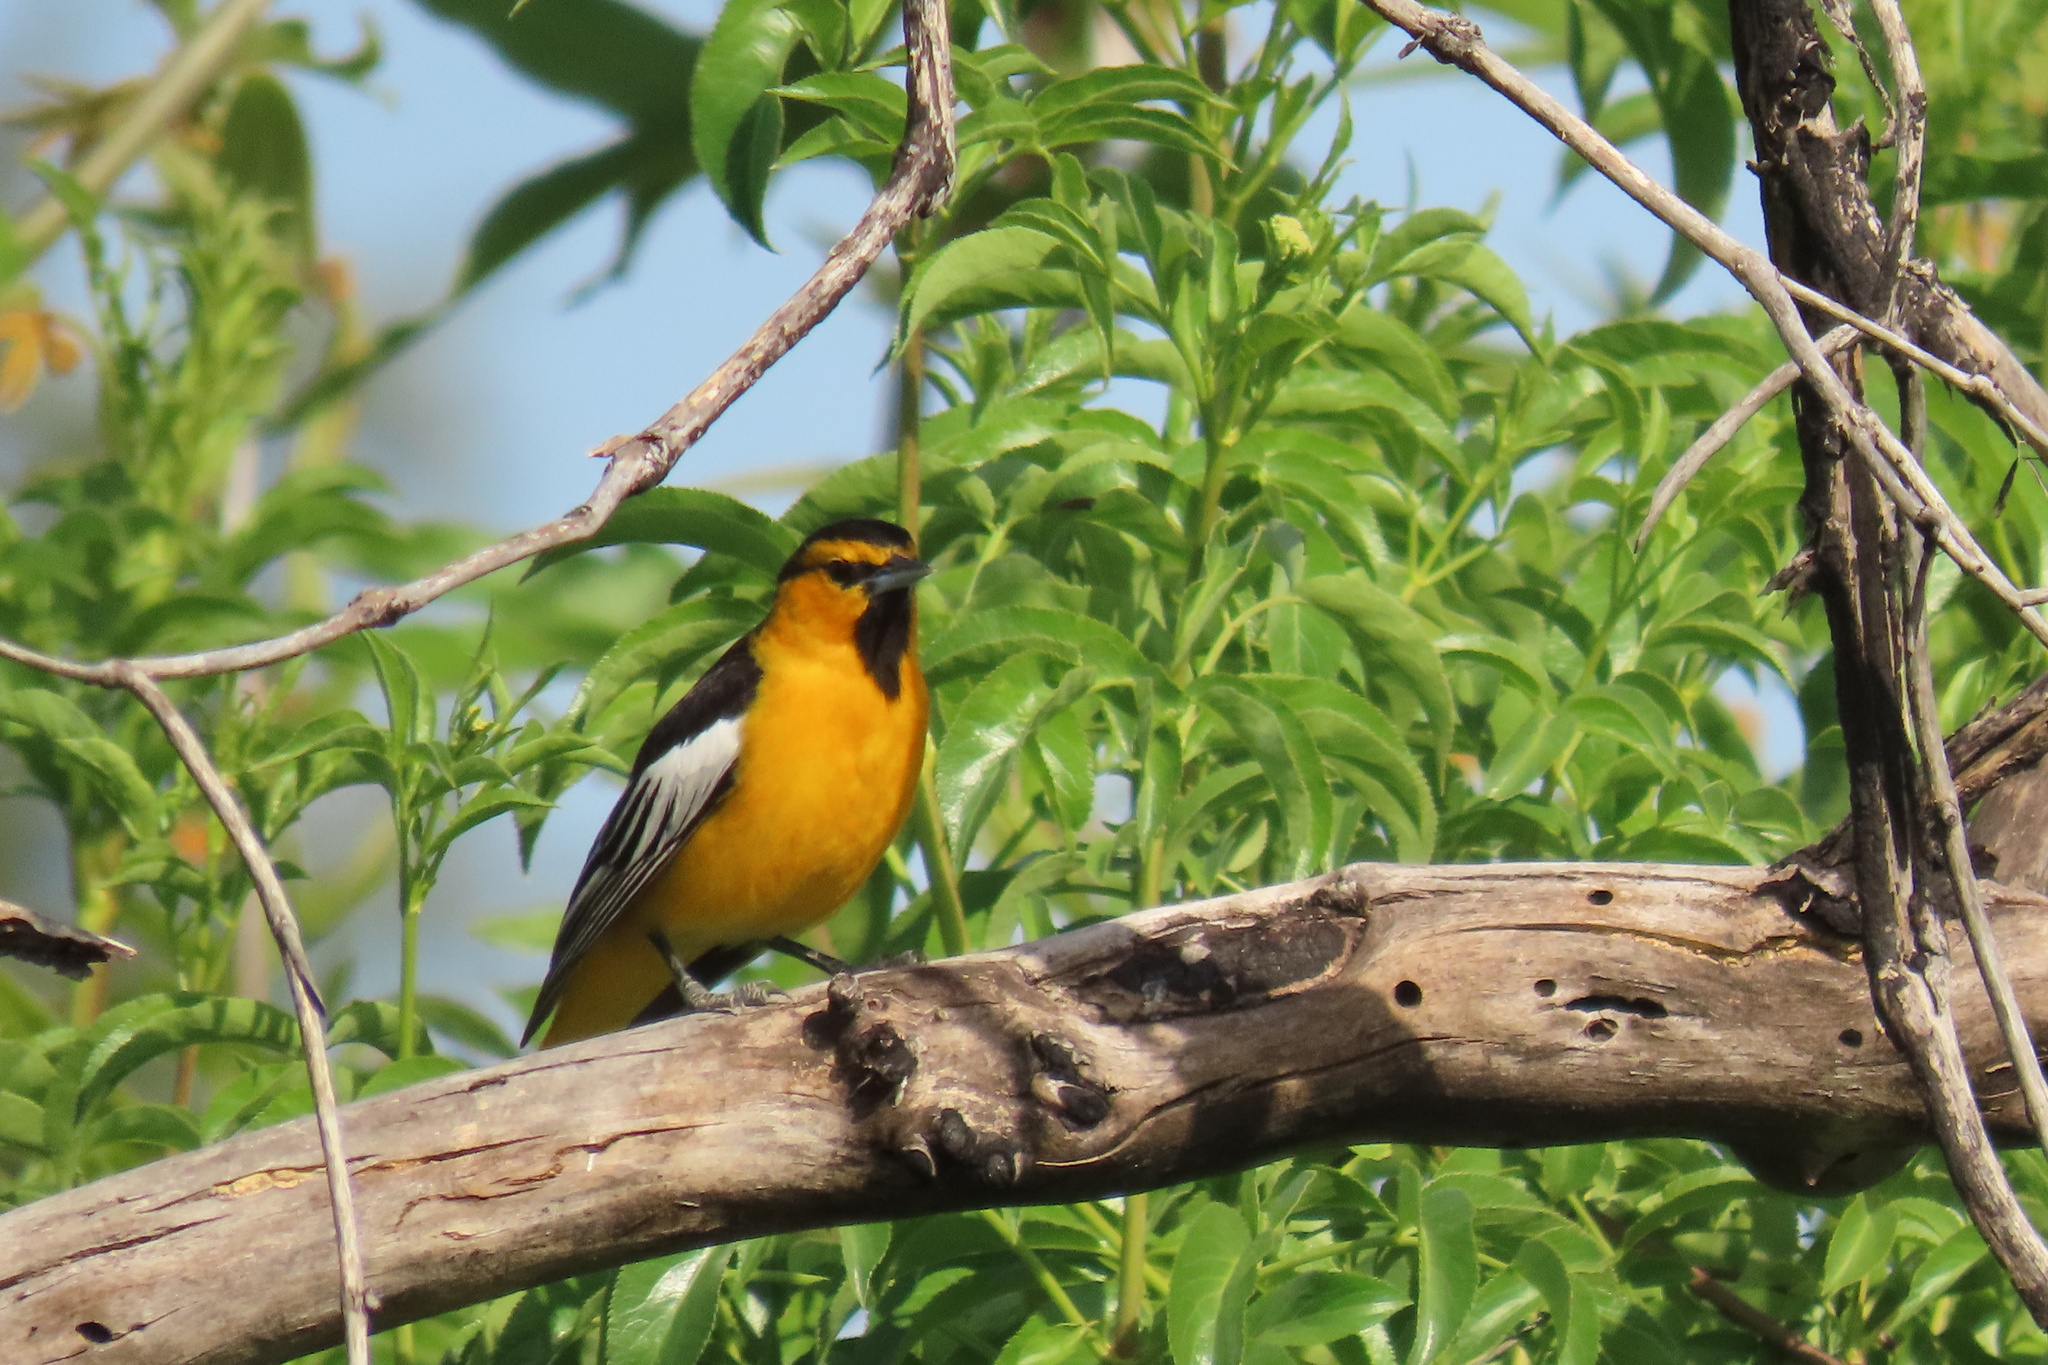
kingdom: Animalia
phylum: Chordata
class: Aves
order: Passeriformes
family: Icteridae
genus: Icterus
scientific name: Icterus bullockii
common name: Bullock's oriole
